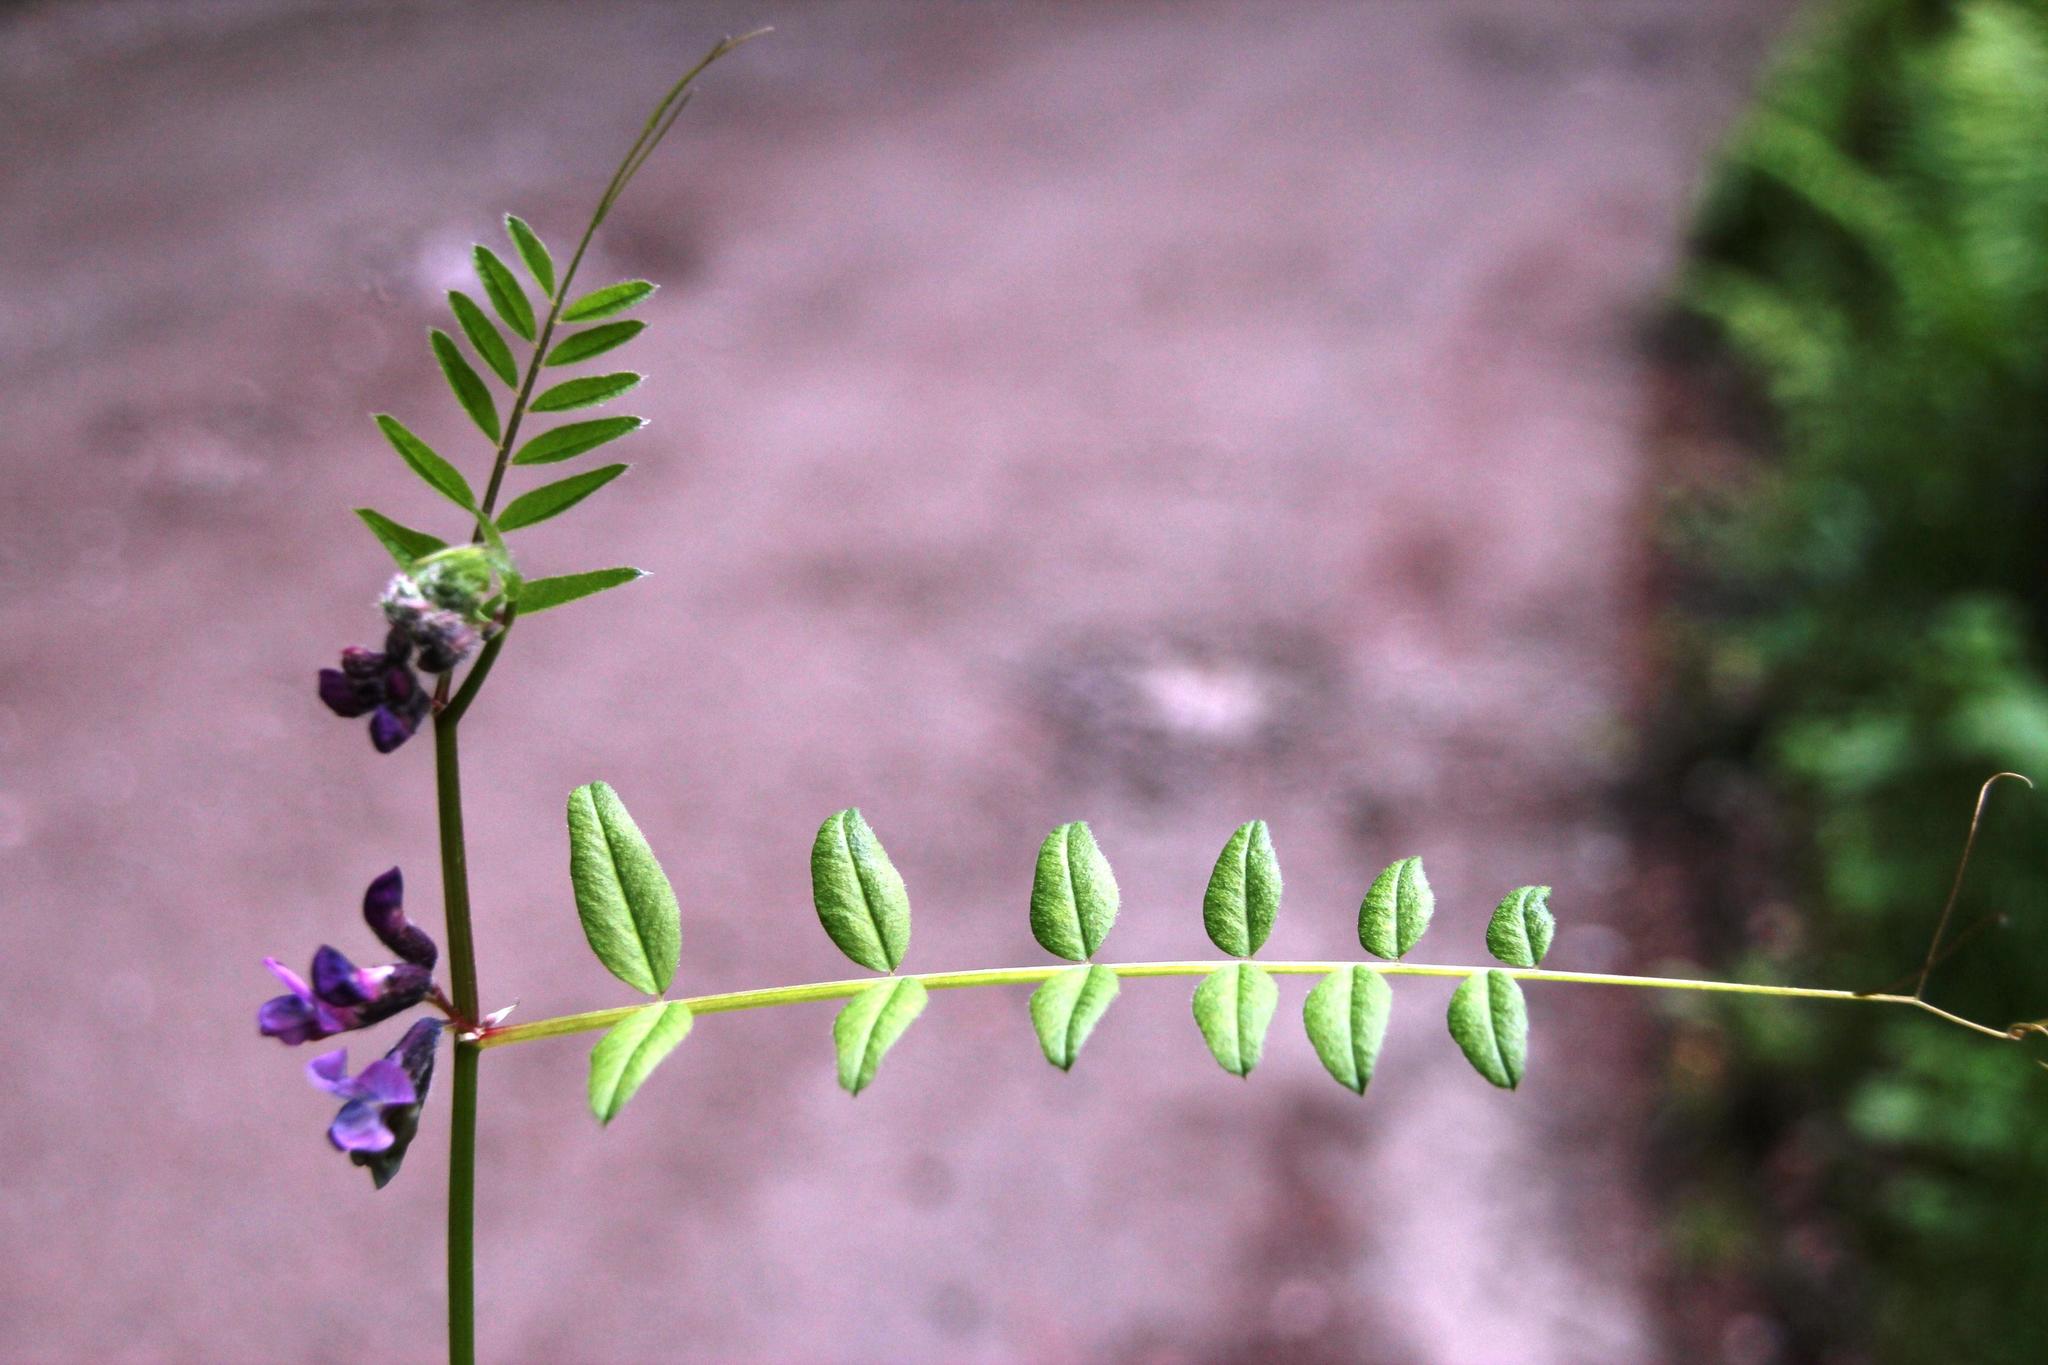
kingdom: Plantae
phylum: Tracheophyta
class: Magnoliopsida
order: Fabales
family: Fabaceae
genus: Vicia
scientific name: Vicia sepium
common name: Bush vetch
